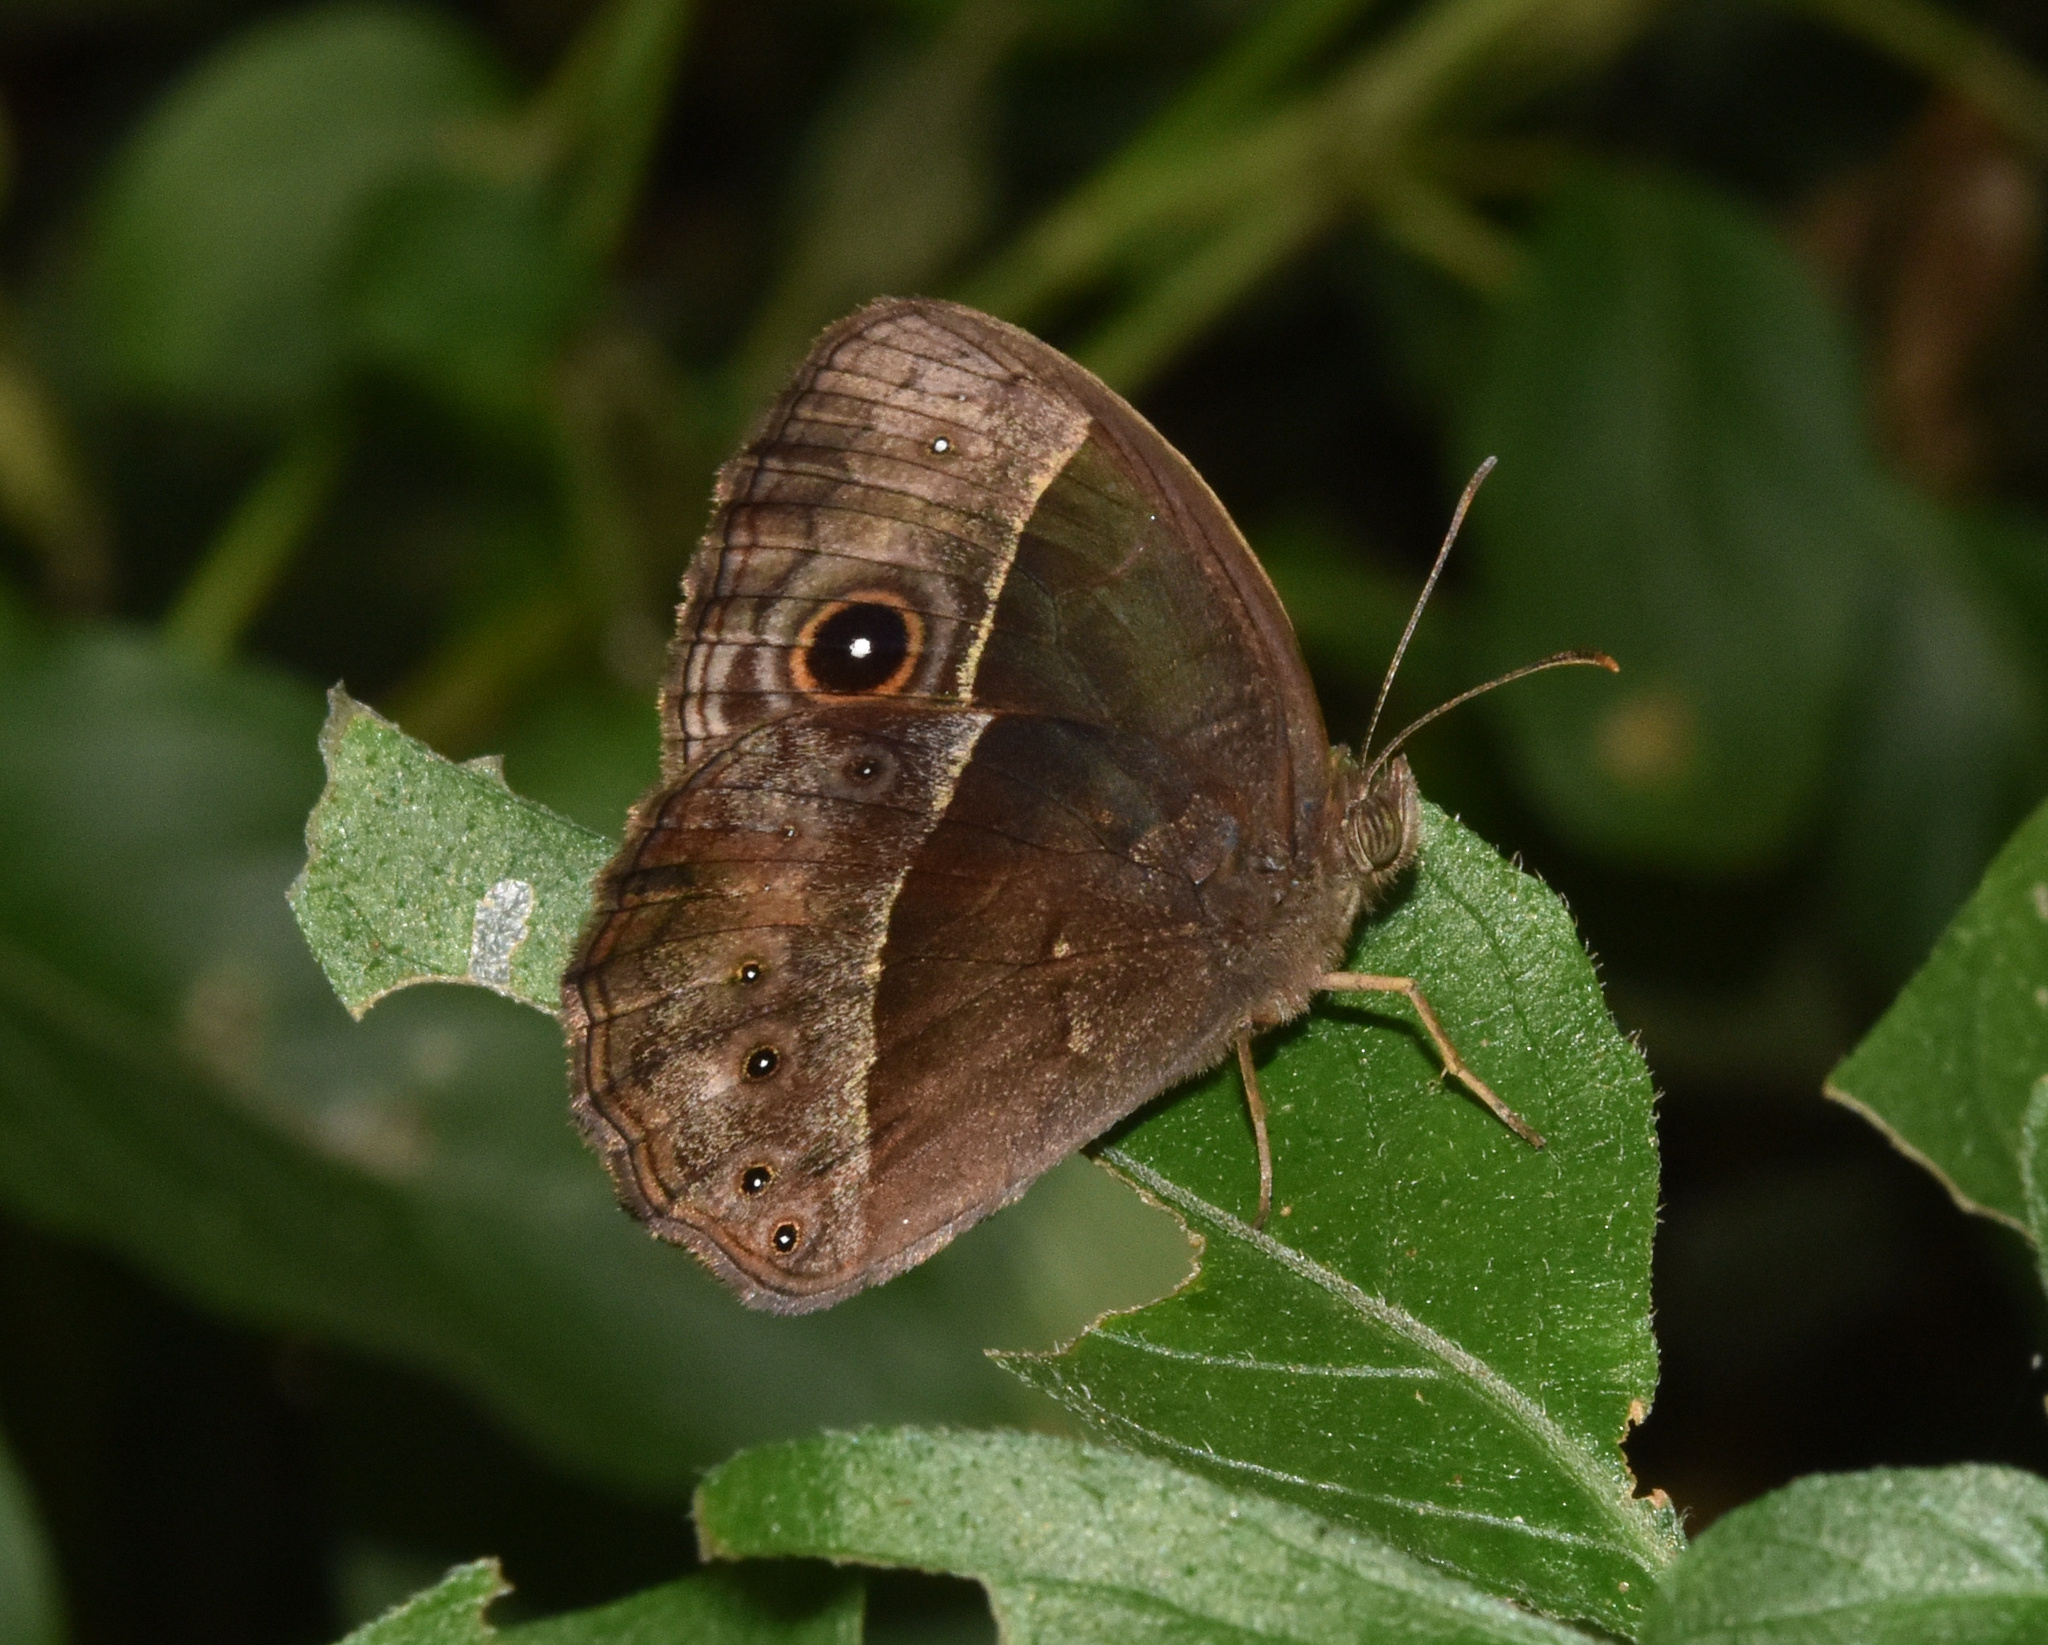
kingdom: Animalia
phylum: Arthropoda
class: Insecta
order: Lepidoptera
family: Nymphalidae
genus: Mycalesis
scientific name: Mycalesis rhacotis
